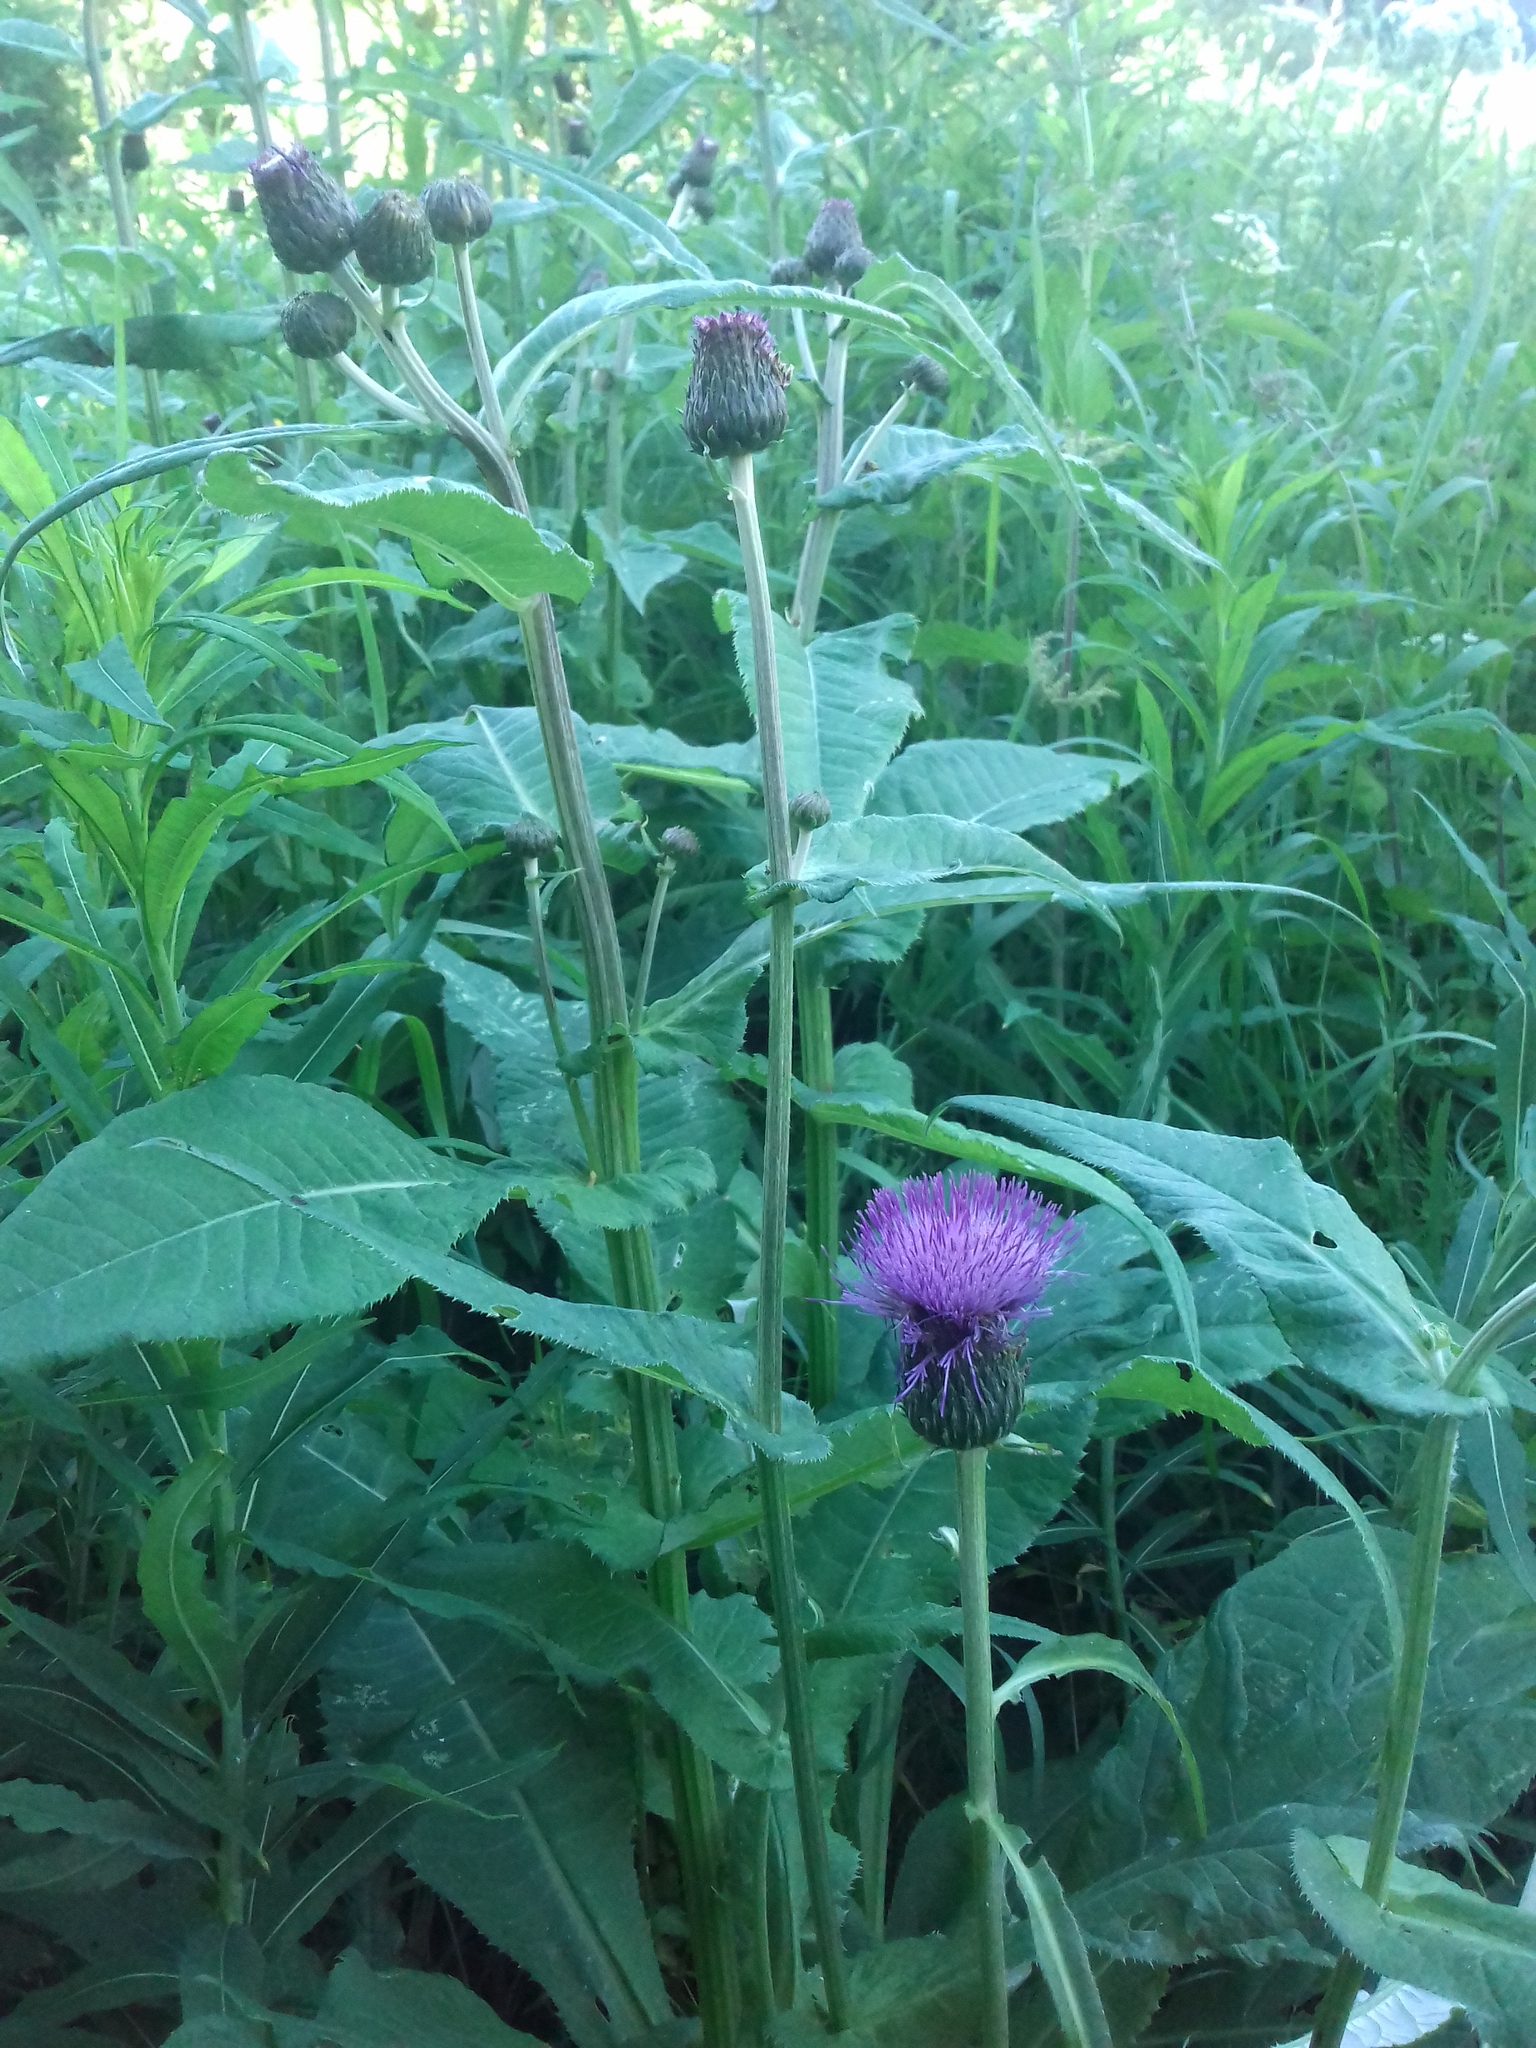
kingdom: Plantae
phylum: Tracheophyta
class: Magnoliopsida
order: Asterales
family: Asteraceae
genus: Cirsium
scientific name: Cirsium heterophyllum
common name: Melancholy thistle
